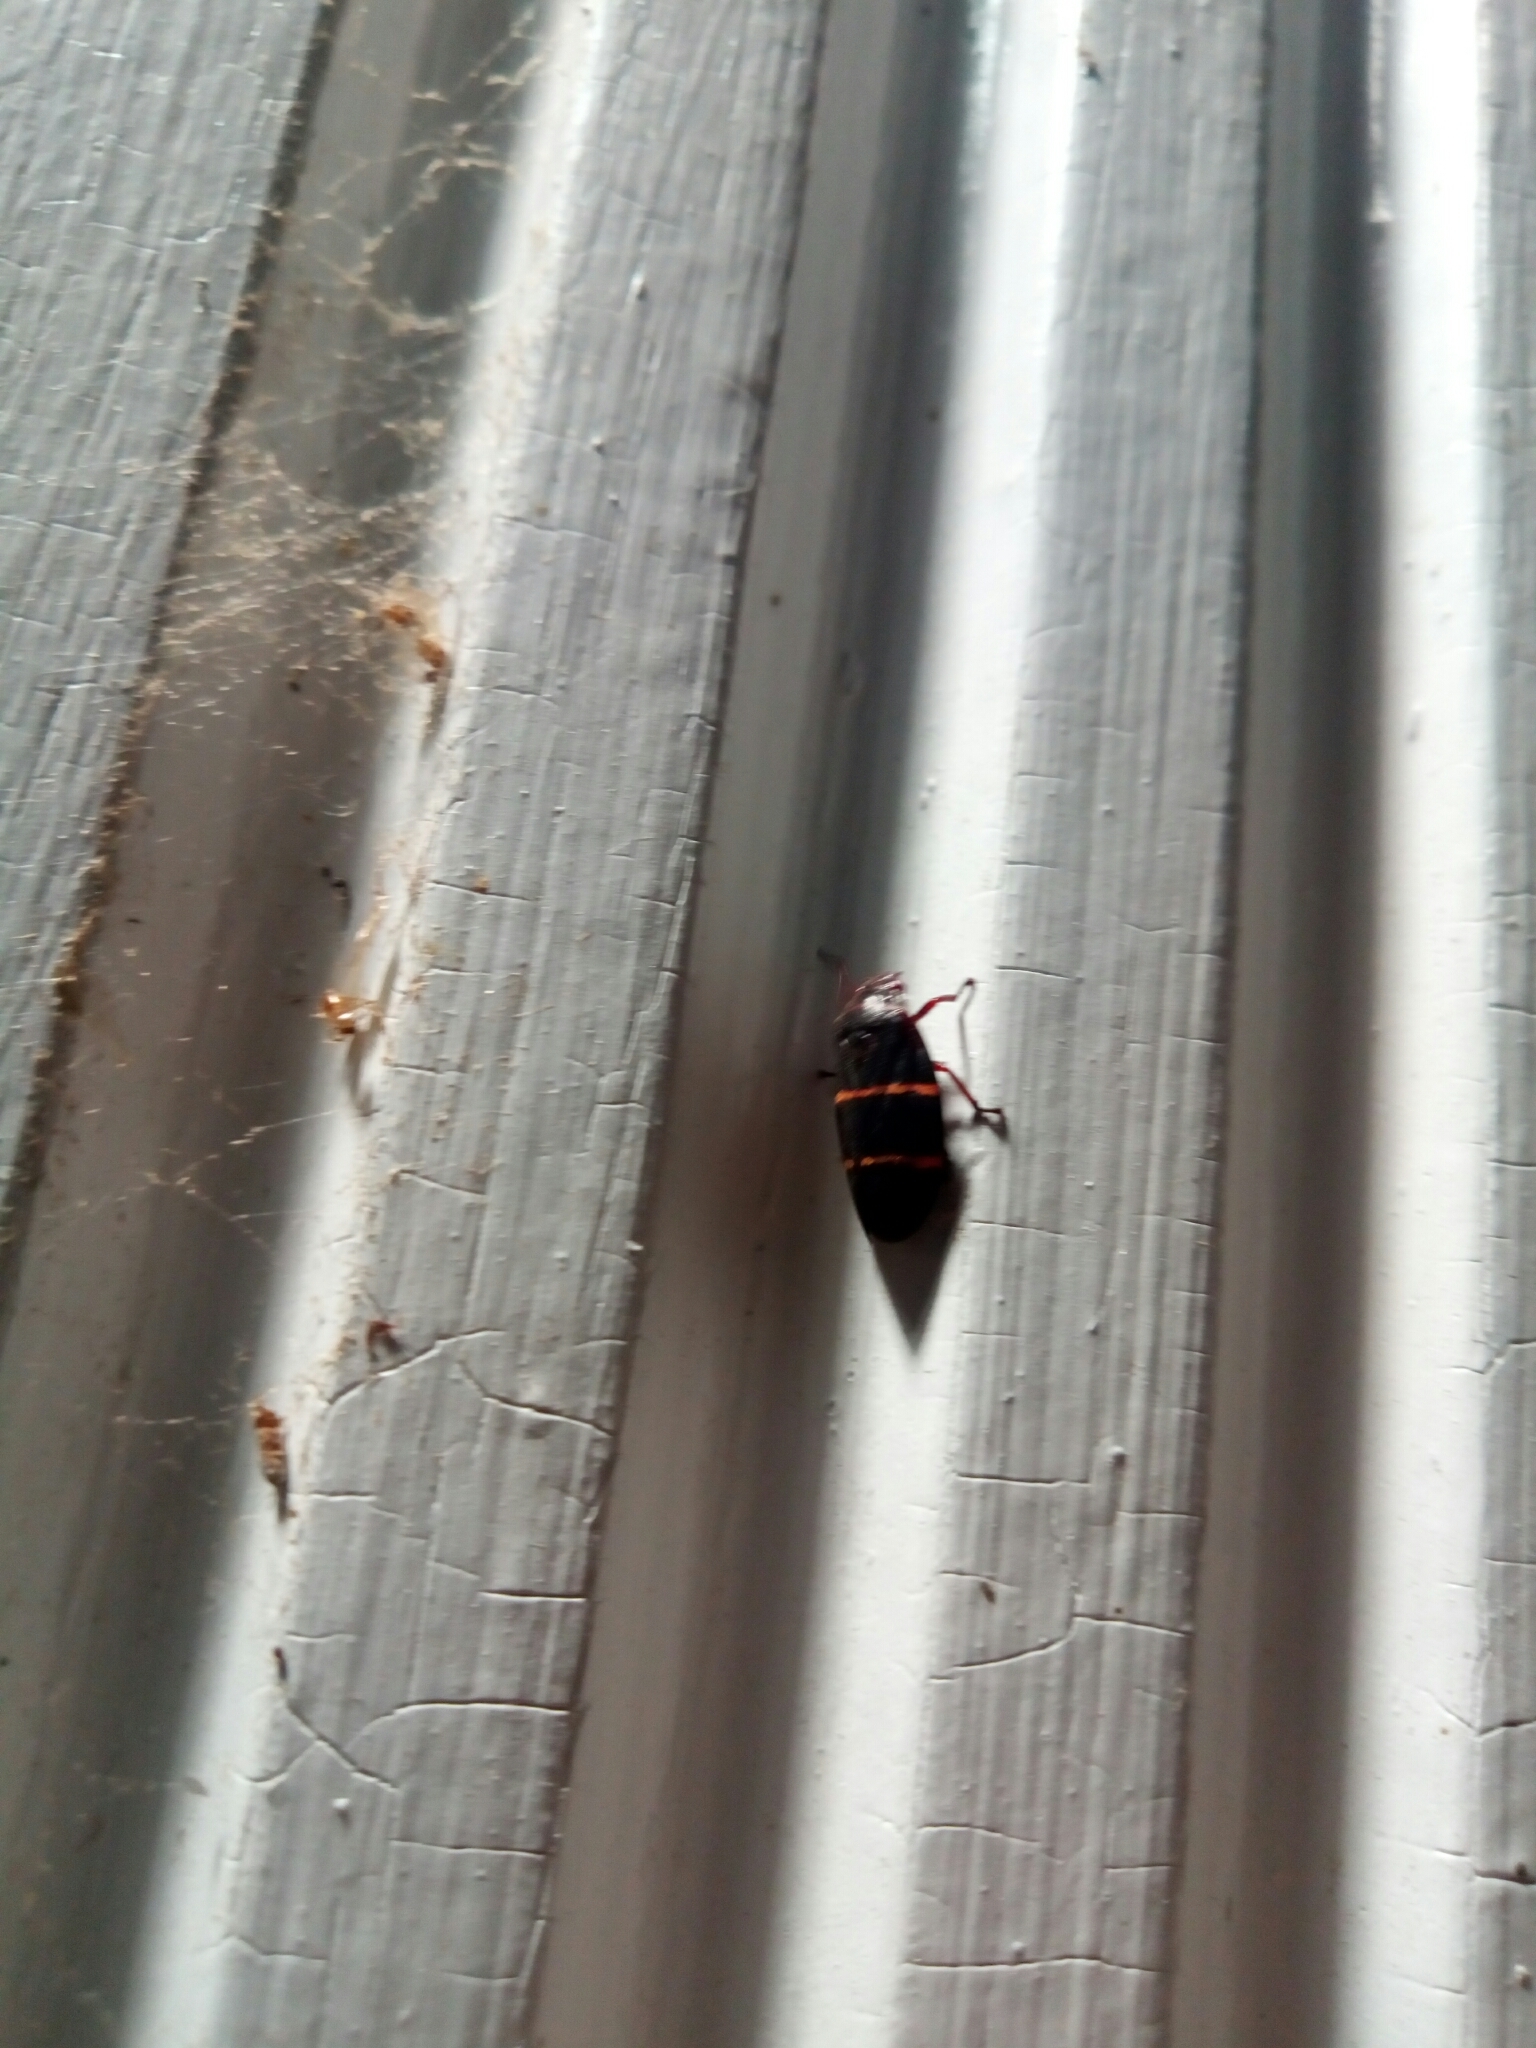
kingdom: Animalia
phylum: Arthropoda
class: Insecta
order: Hemiptera
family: Cercopidae
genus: Prosapia
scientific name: Prosapia bicincta
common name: Twolined spittlebug
